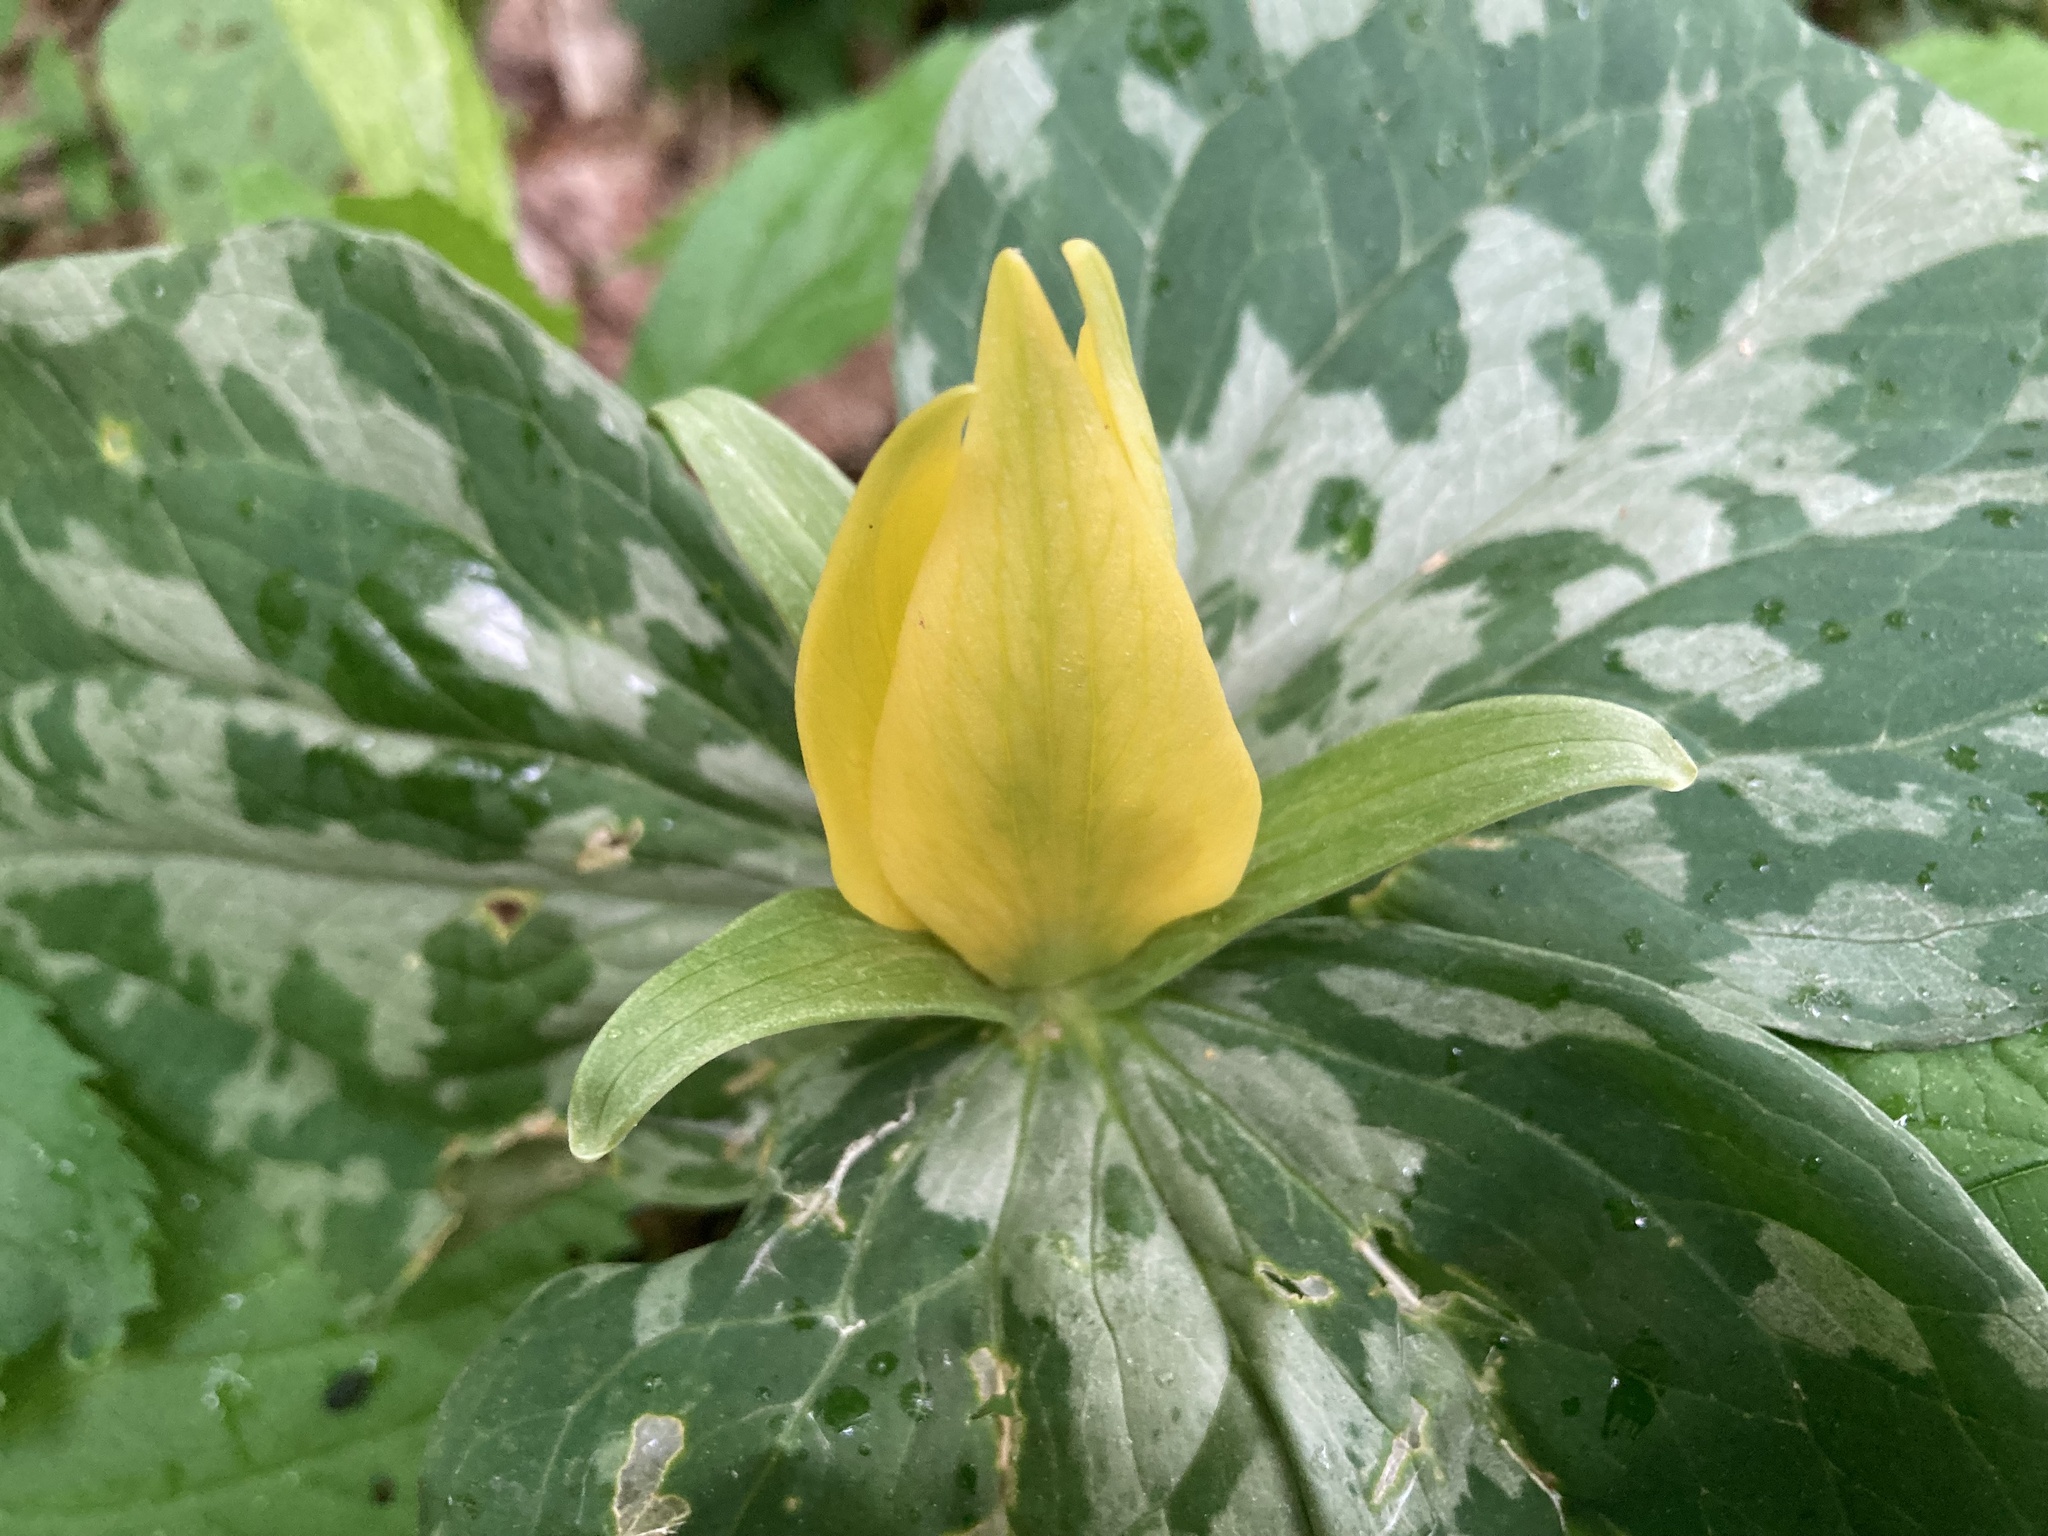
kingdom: Plantae
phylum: Tracheophyta
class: Liliopsida
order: Liliales
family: Melanthiaceae
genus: Trillium
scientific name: Trillium luteum
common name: Wax trillium
